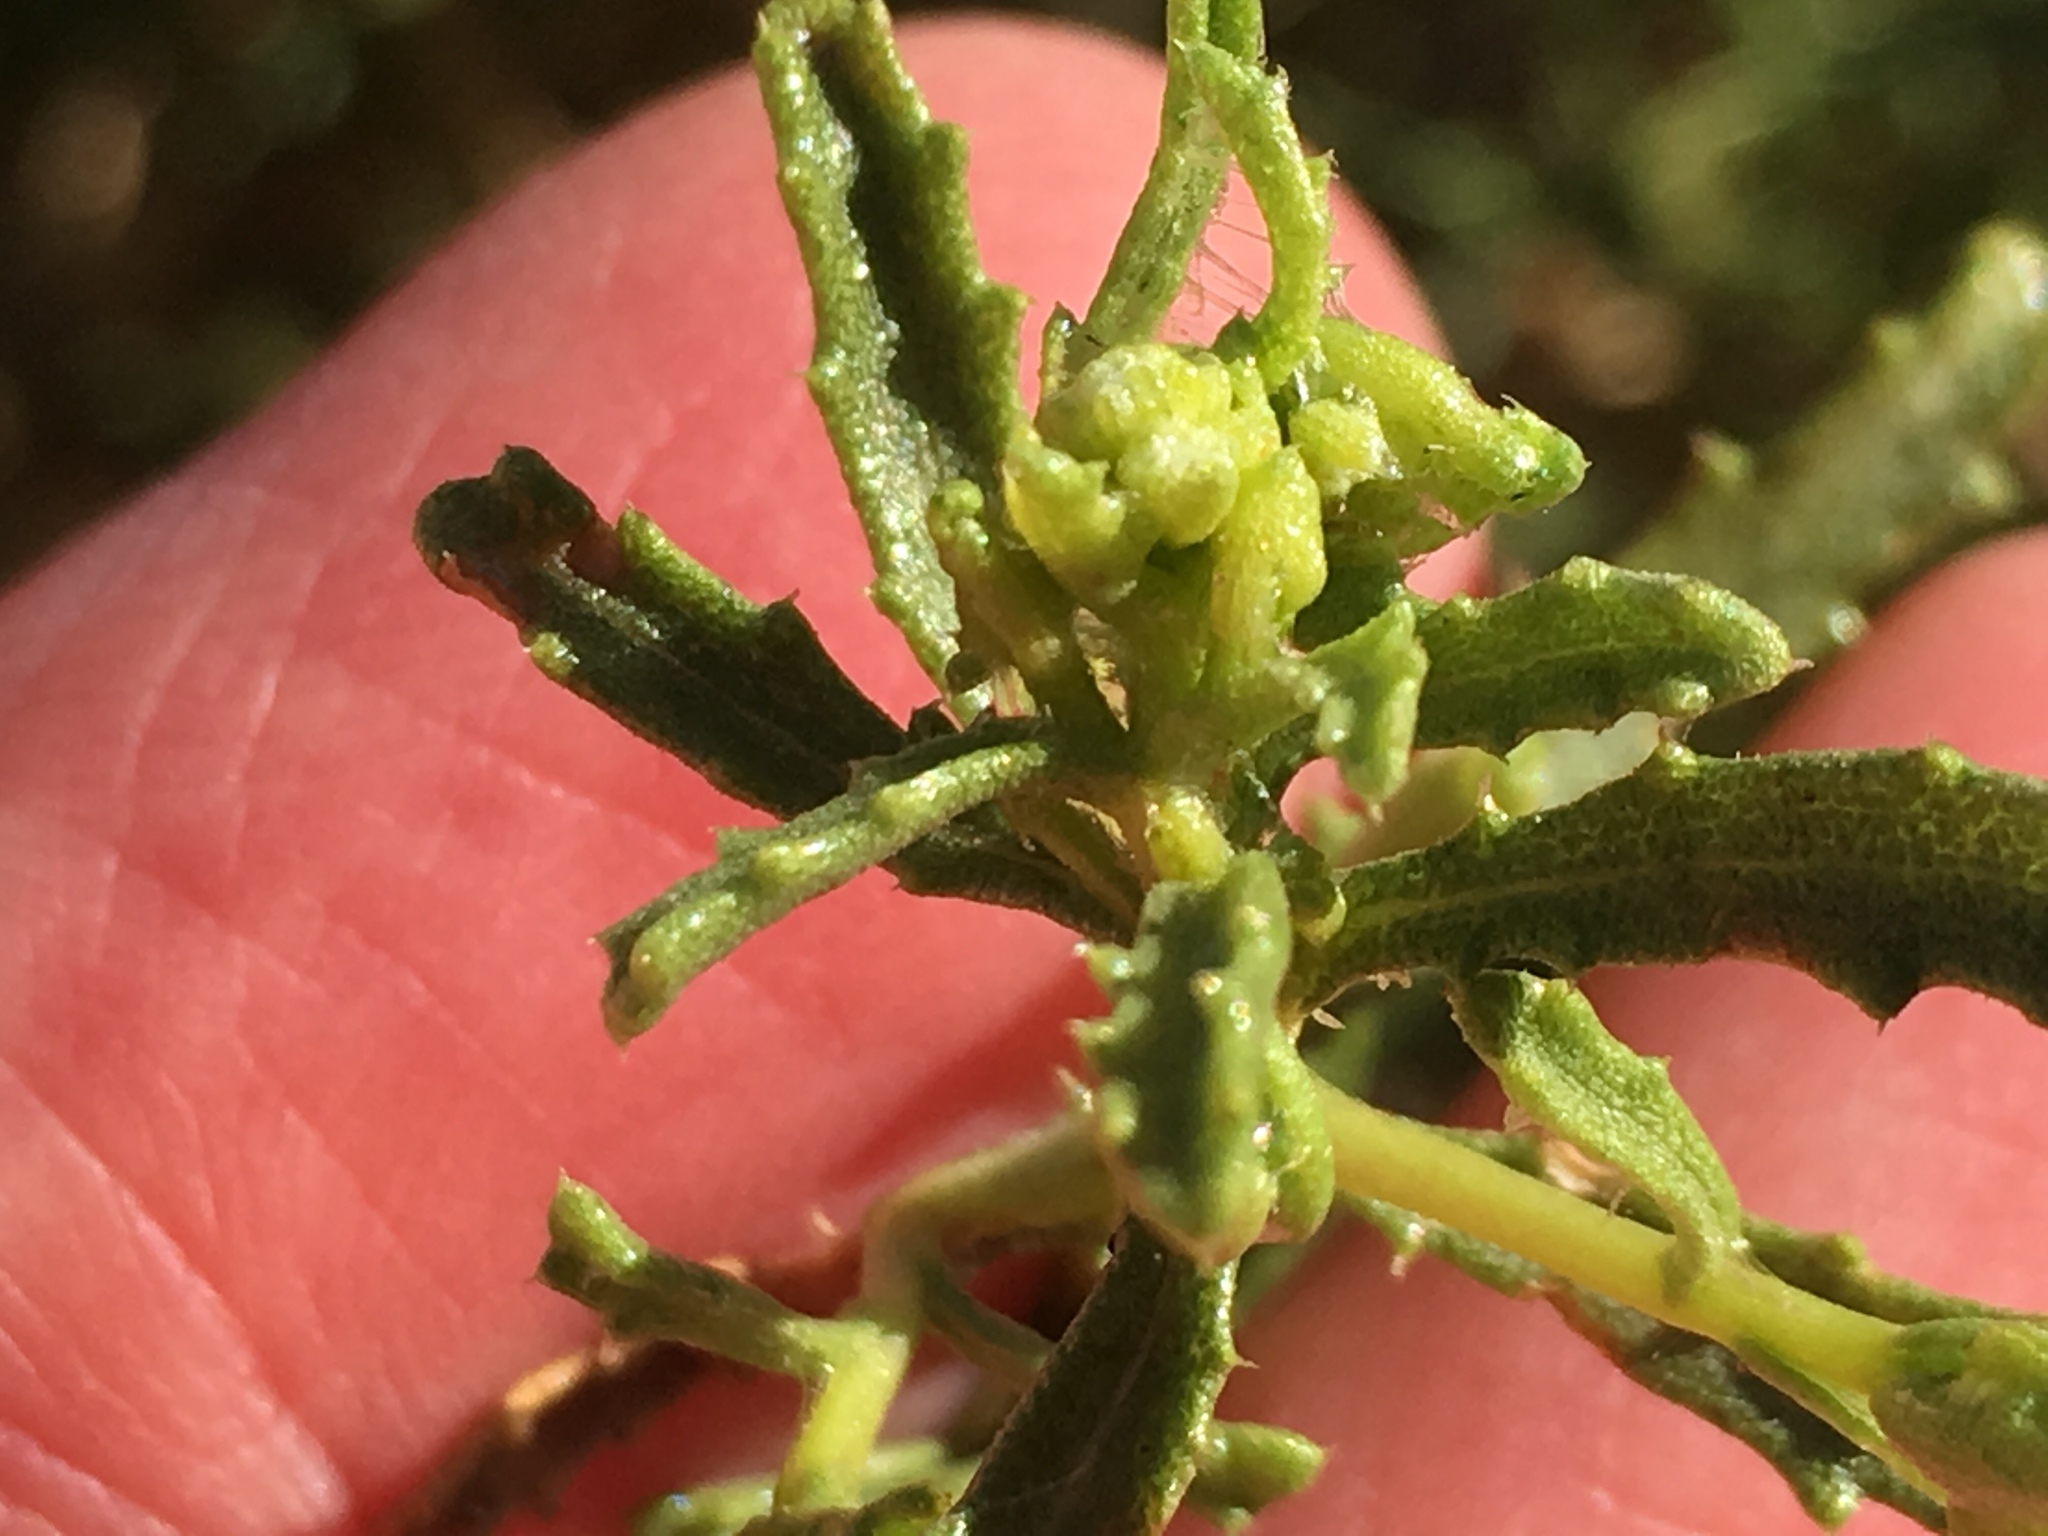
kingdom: Plantae
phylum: Tracheophyta
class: Magnoliopsida
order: Asterales
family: Asteraceae
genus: Isocoma
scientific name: Isocoma acradenia
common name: Alkali jimmyweed
